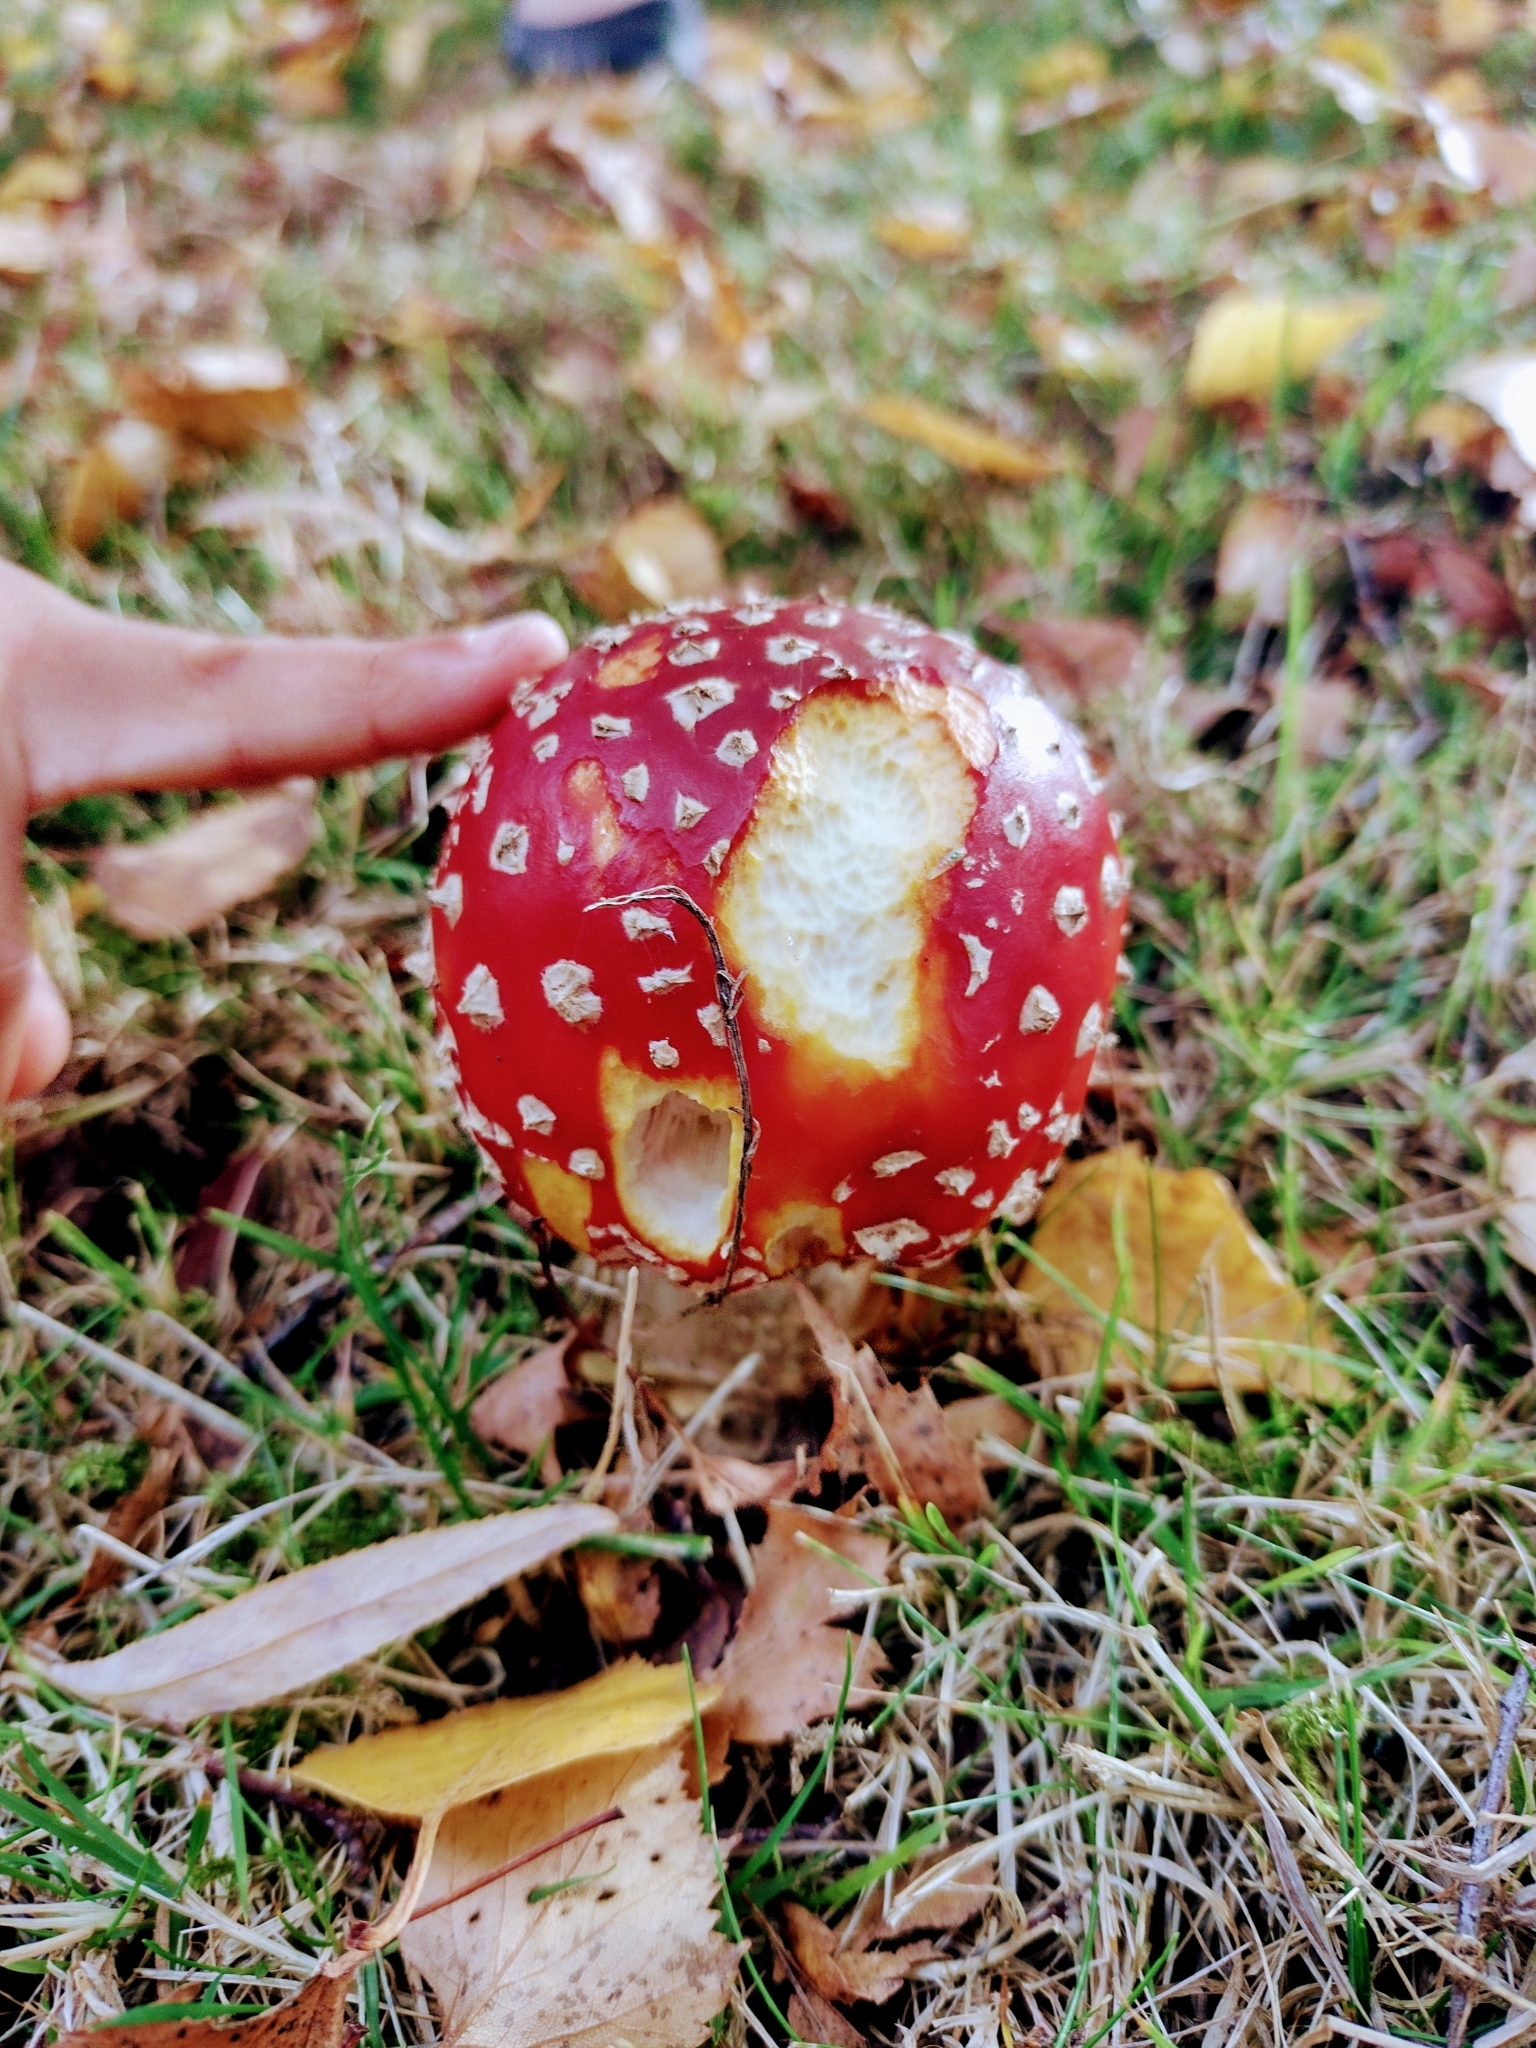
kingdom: Fungi
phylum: Basidiomycota
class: Agaricomycetes
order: Agaricales
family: Amanitaceae
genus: Amanita
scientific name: Amanita muscaria
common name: Fly agaric
